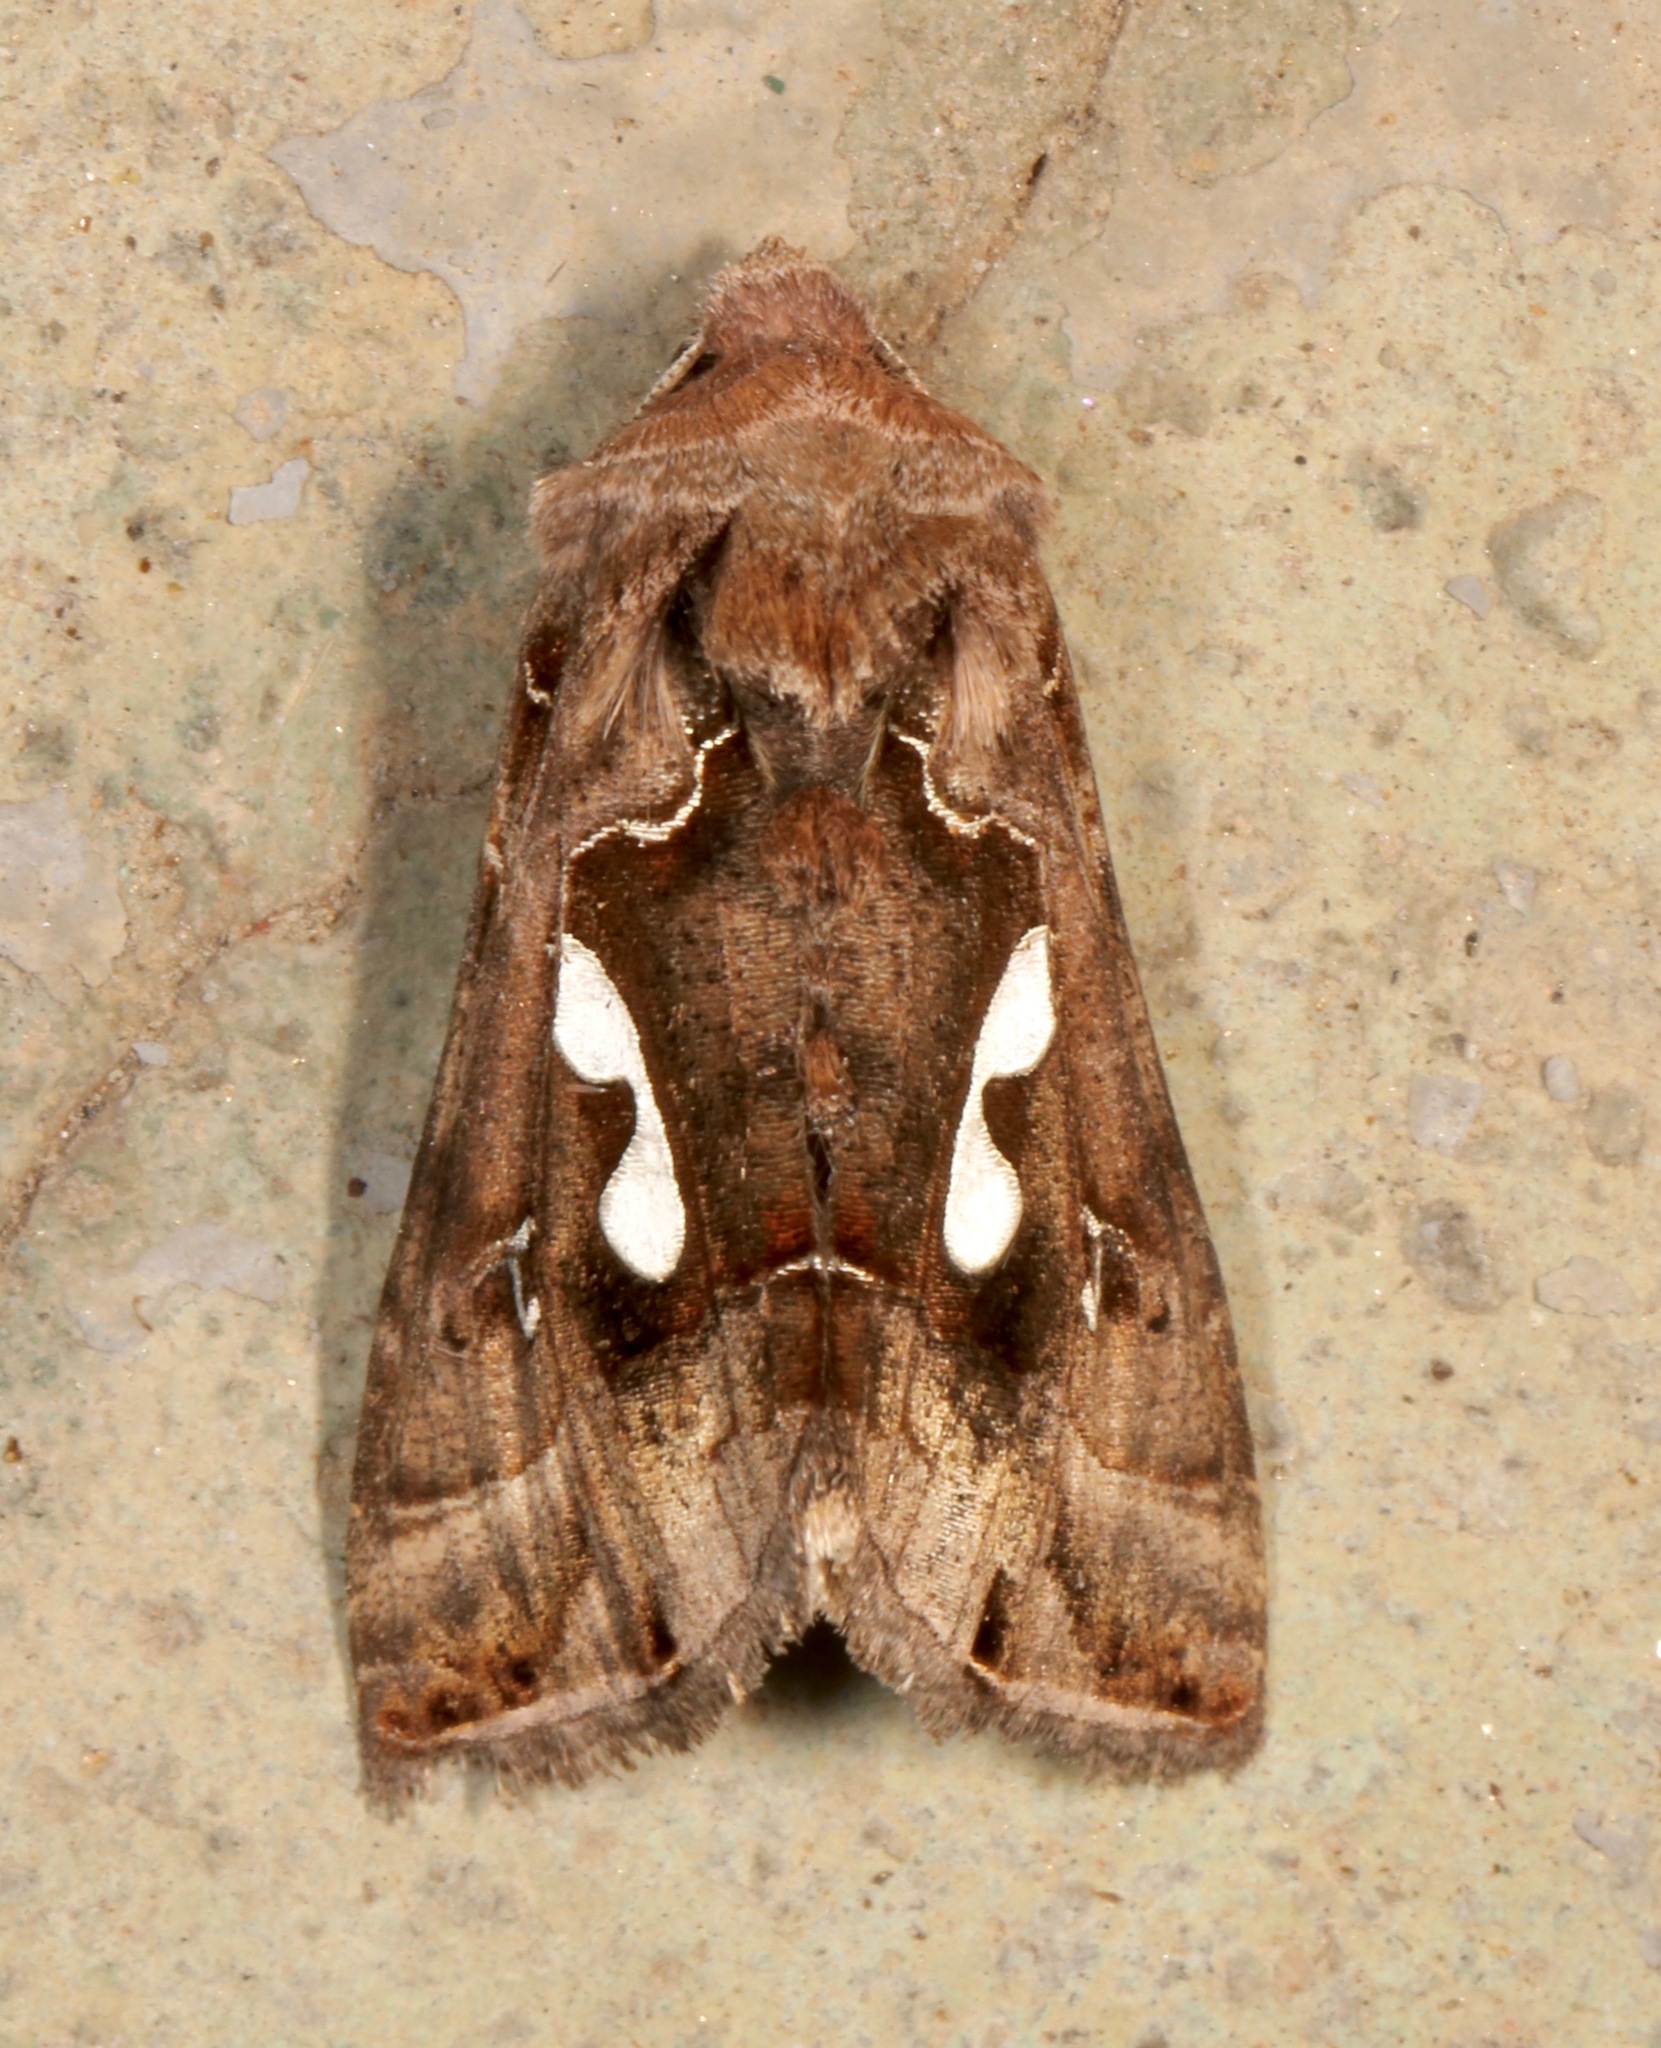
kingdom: Animalia
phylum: Arthropoda
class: Insecta
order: Lepidoptera
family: Noctuidae
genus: Megalographa
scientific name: Megalographa biloba
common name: Cutworm
